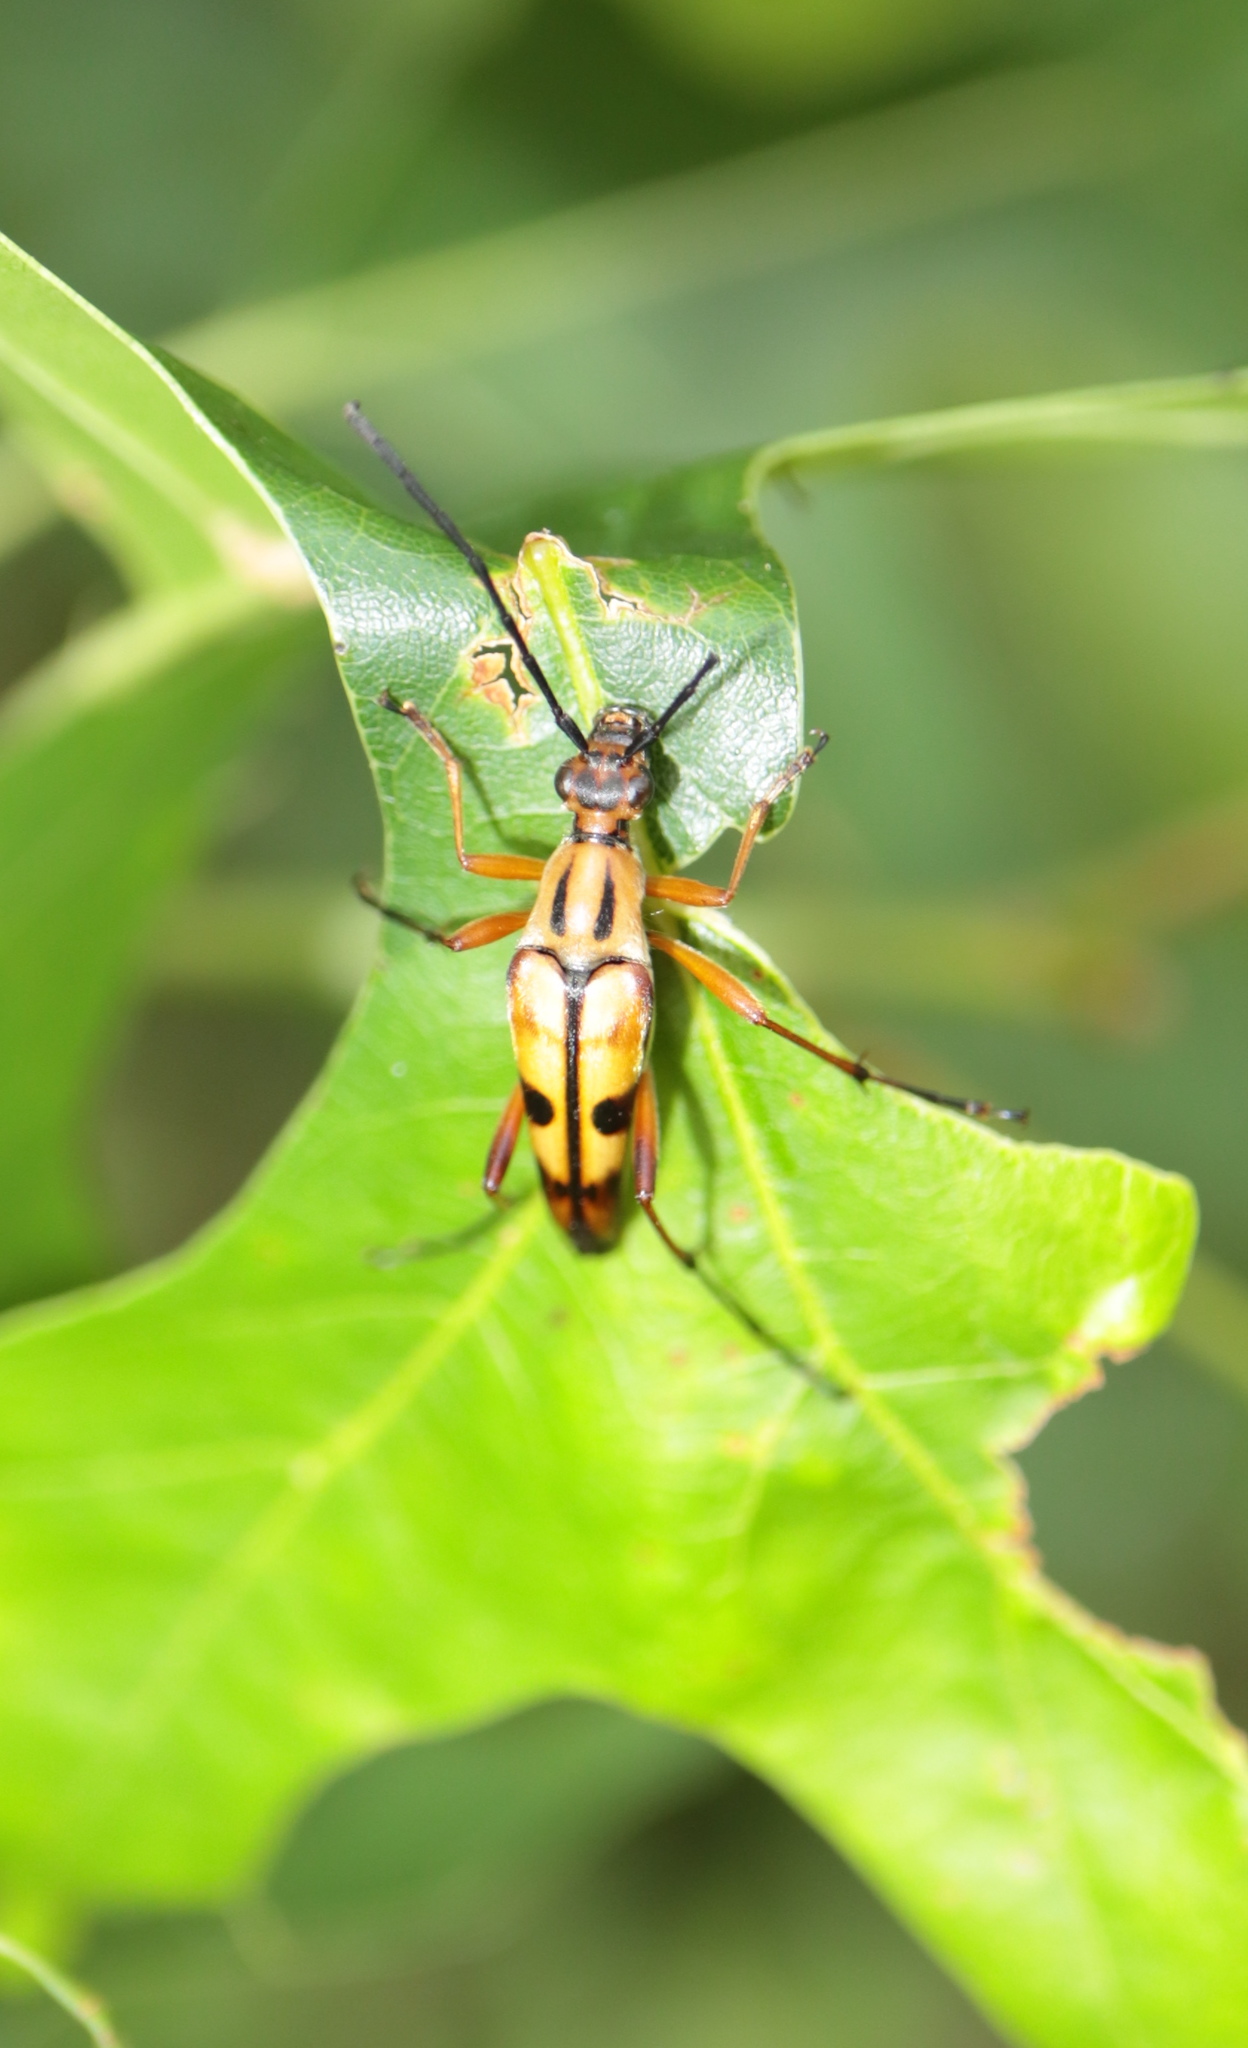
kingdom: Animalia
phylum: Arthropoda
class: Insecta
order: Coleoptera
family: Cerambycidae
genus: Strangalia
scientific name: Strangalia famelica
